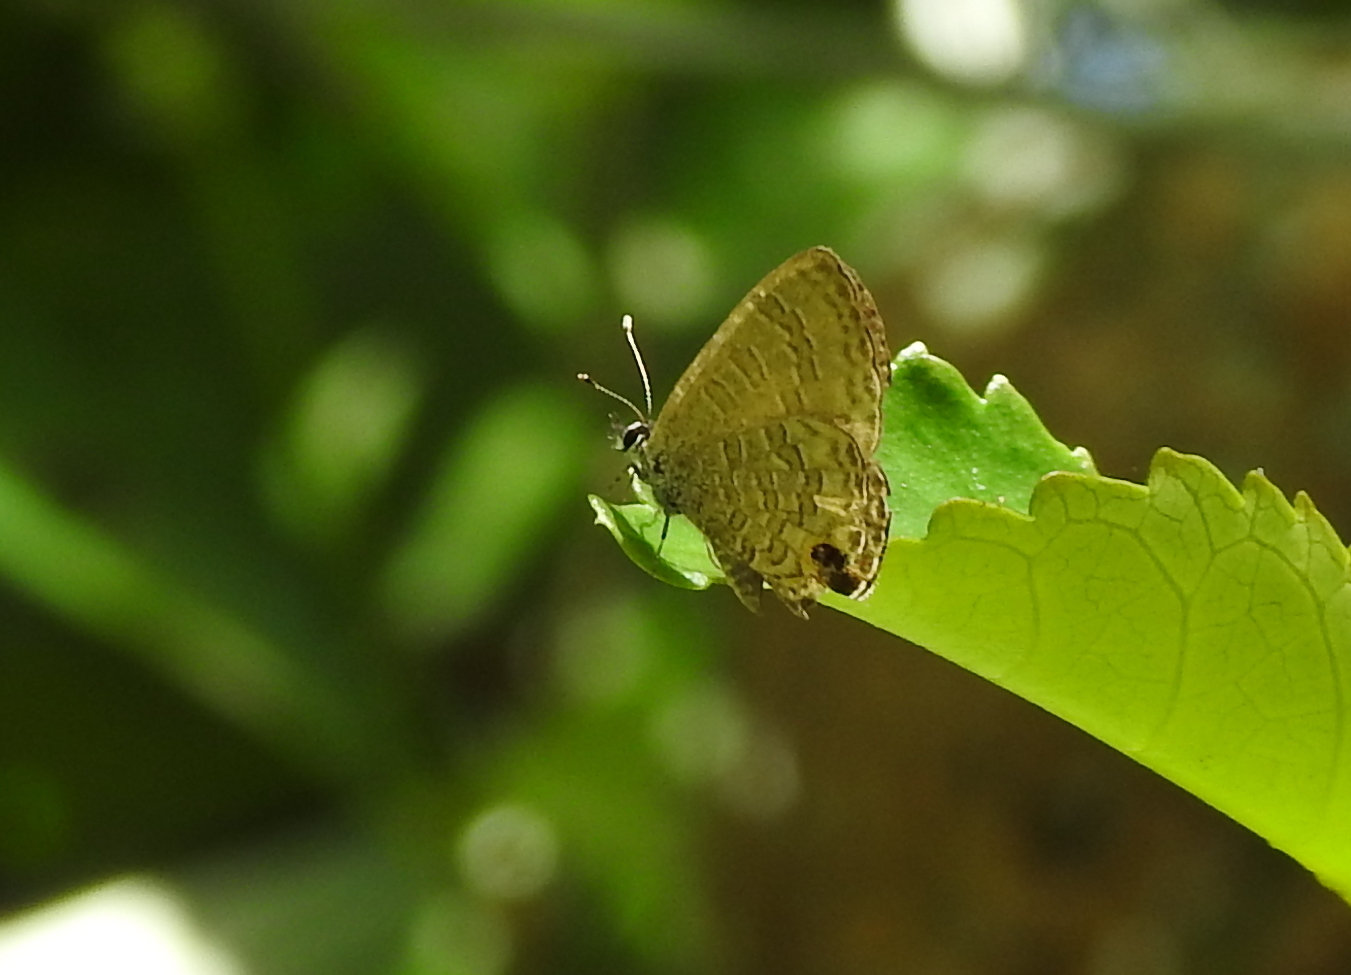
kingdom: Animalia
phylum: Arthropoda
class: Insecta
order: Lepidoptera
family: Lycaenidae
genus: Prosotas
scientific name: Prosotas nora
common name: Common line blue
